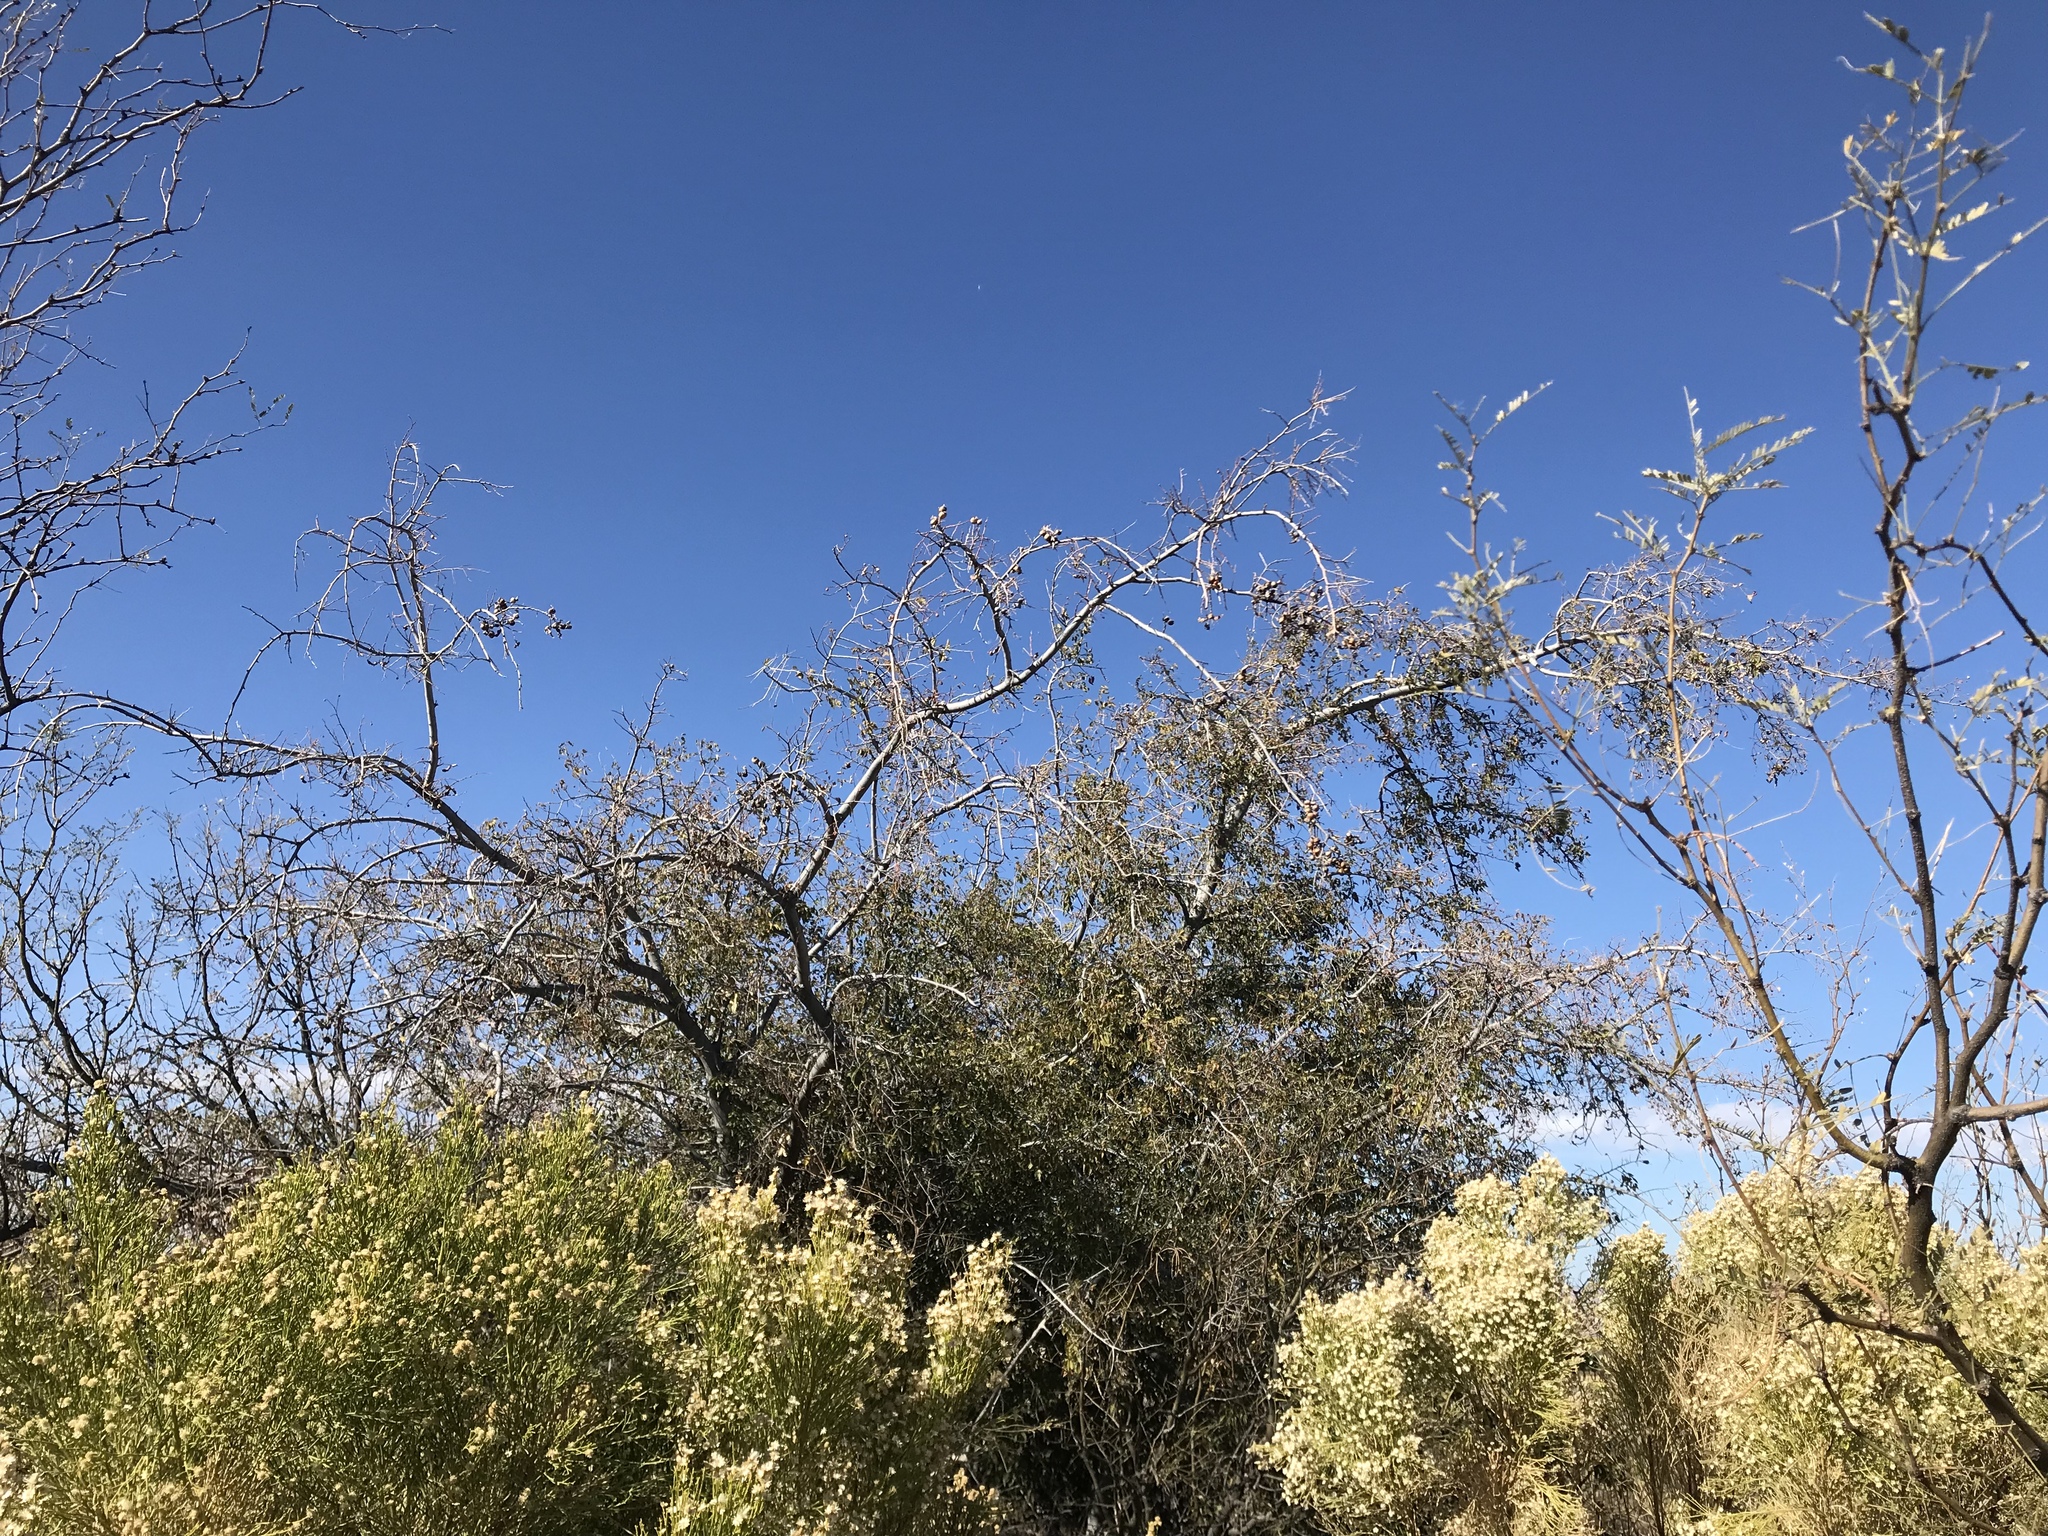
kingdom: Plantae
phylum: Tracheophyta
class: Magnoliopsida
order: Rosales
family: Cannabaceae
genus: Celtis
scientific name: Celtis reticulata
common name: Netleaf hackberry
